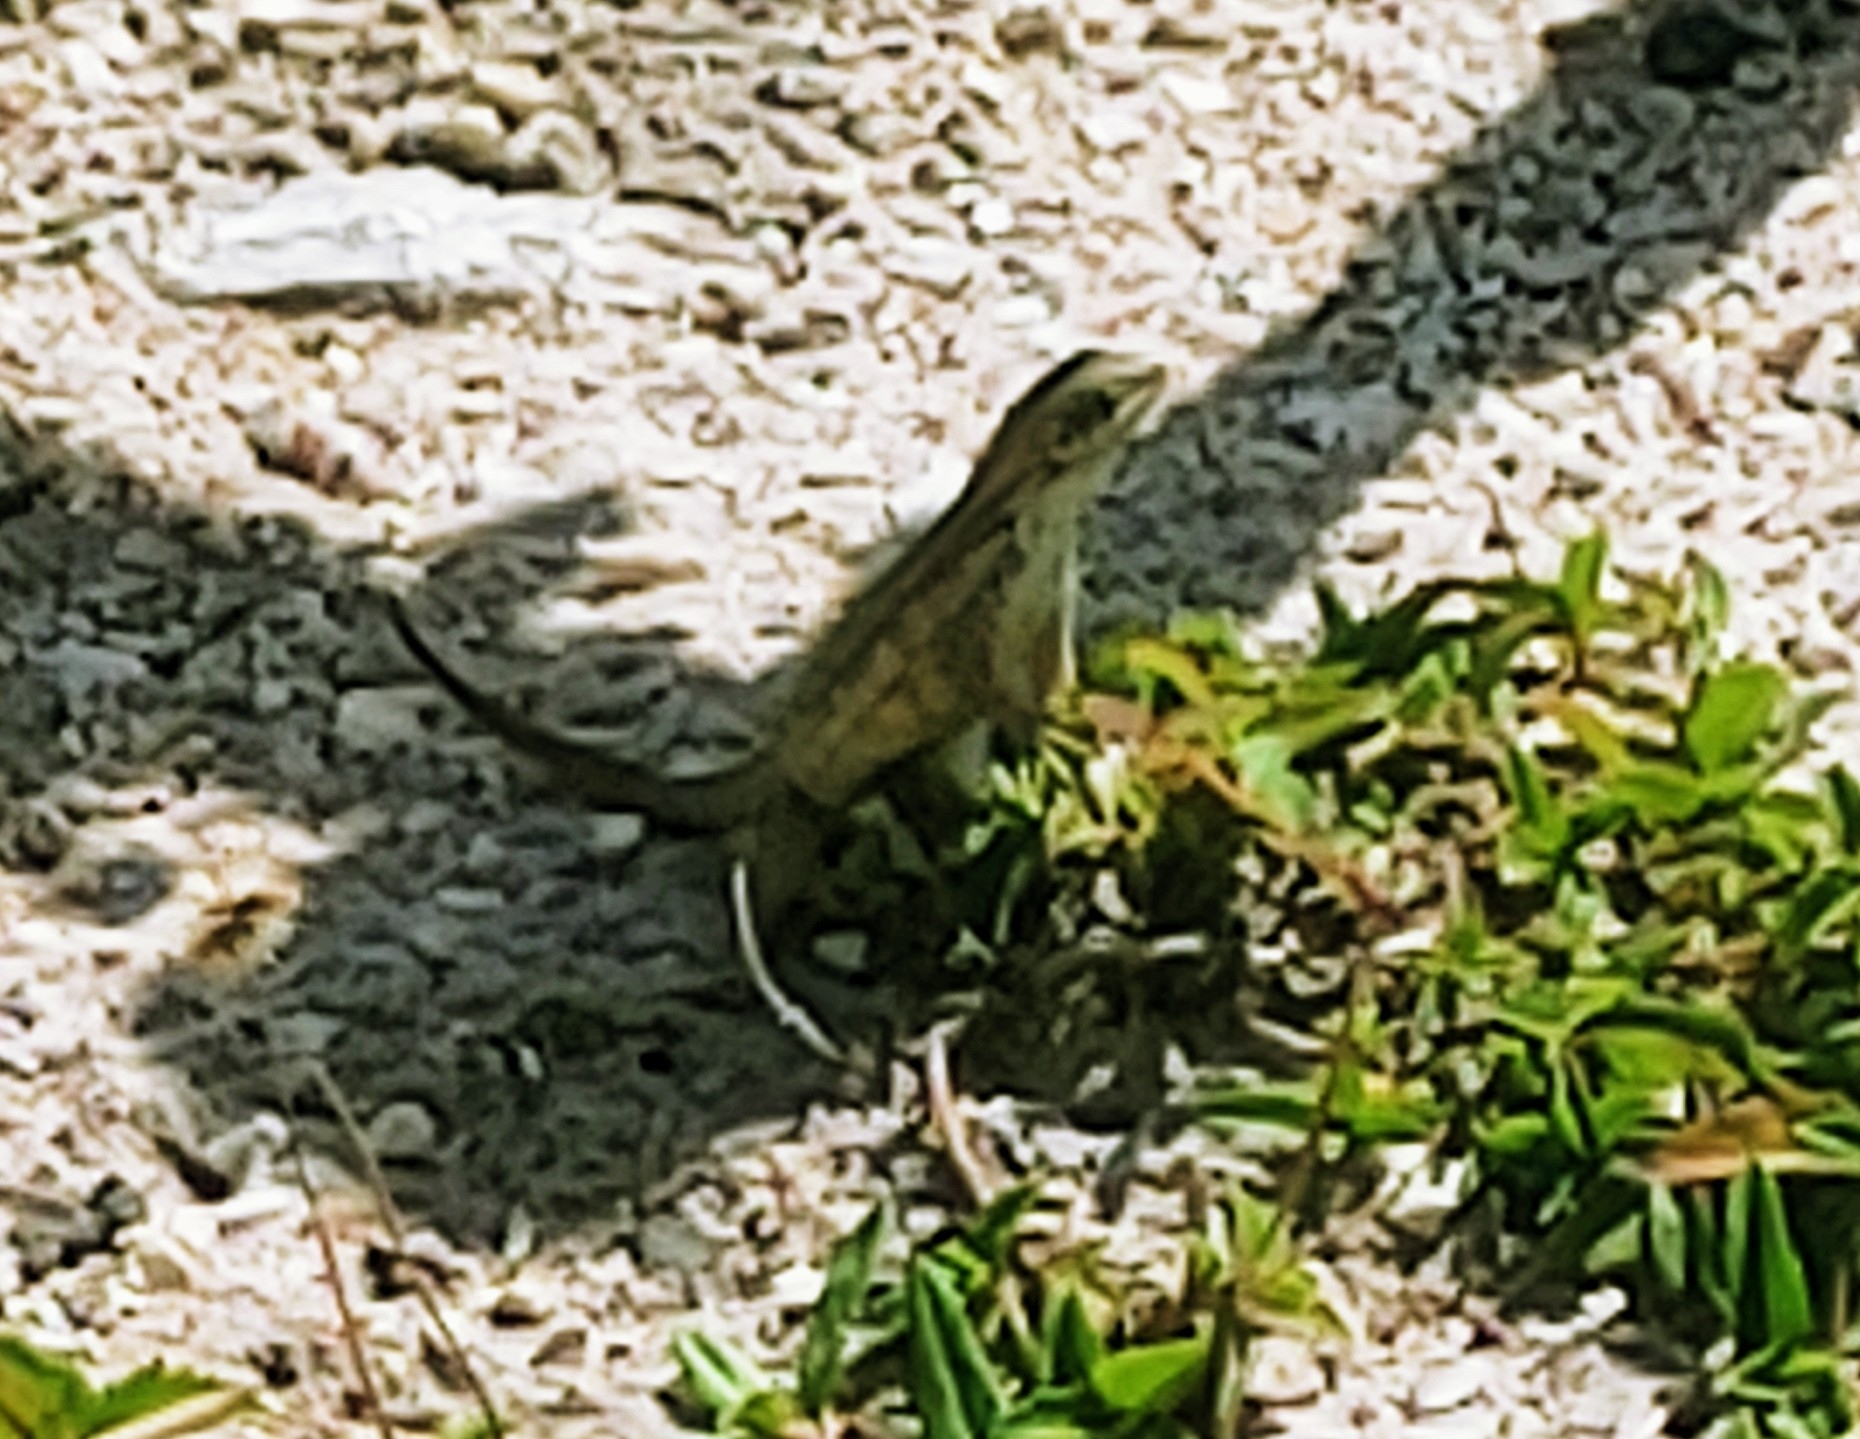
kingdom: Animalia
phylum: Chordata
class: Squamata
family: Leiocephalidae
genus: Leiocephalus
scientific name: Leiocephalus carinatus
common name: Northern curly-tailed lizard
